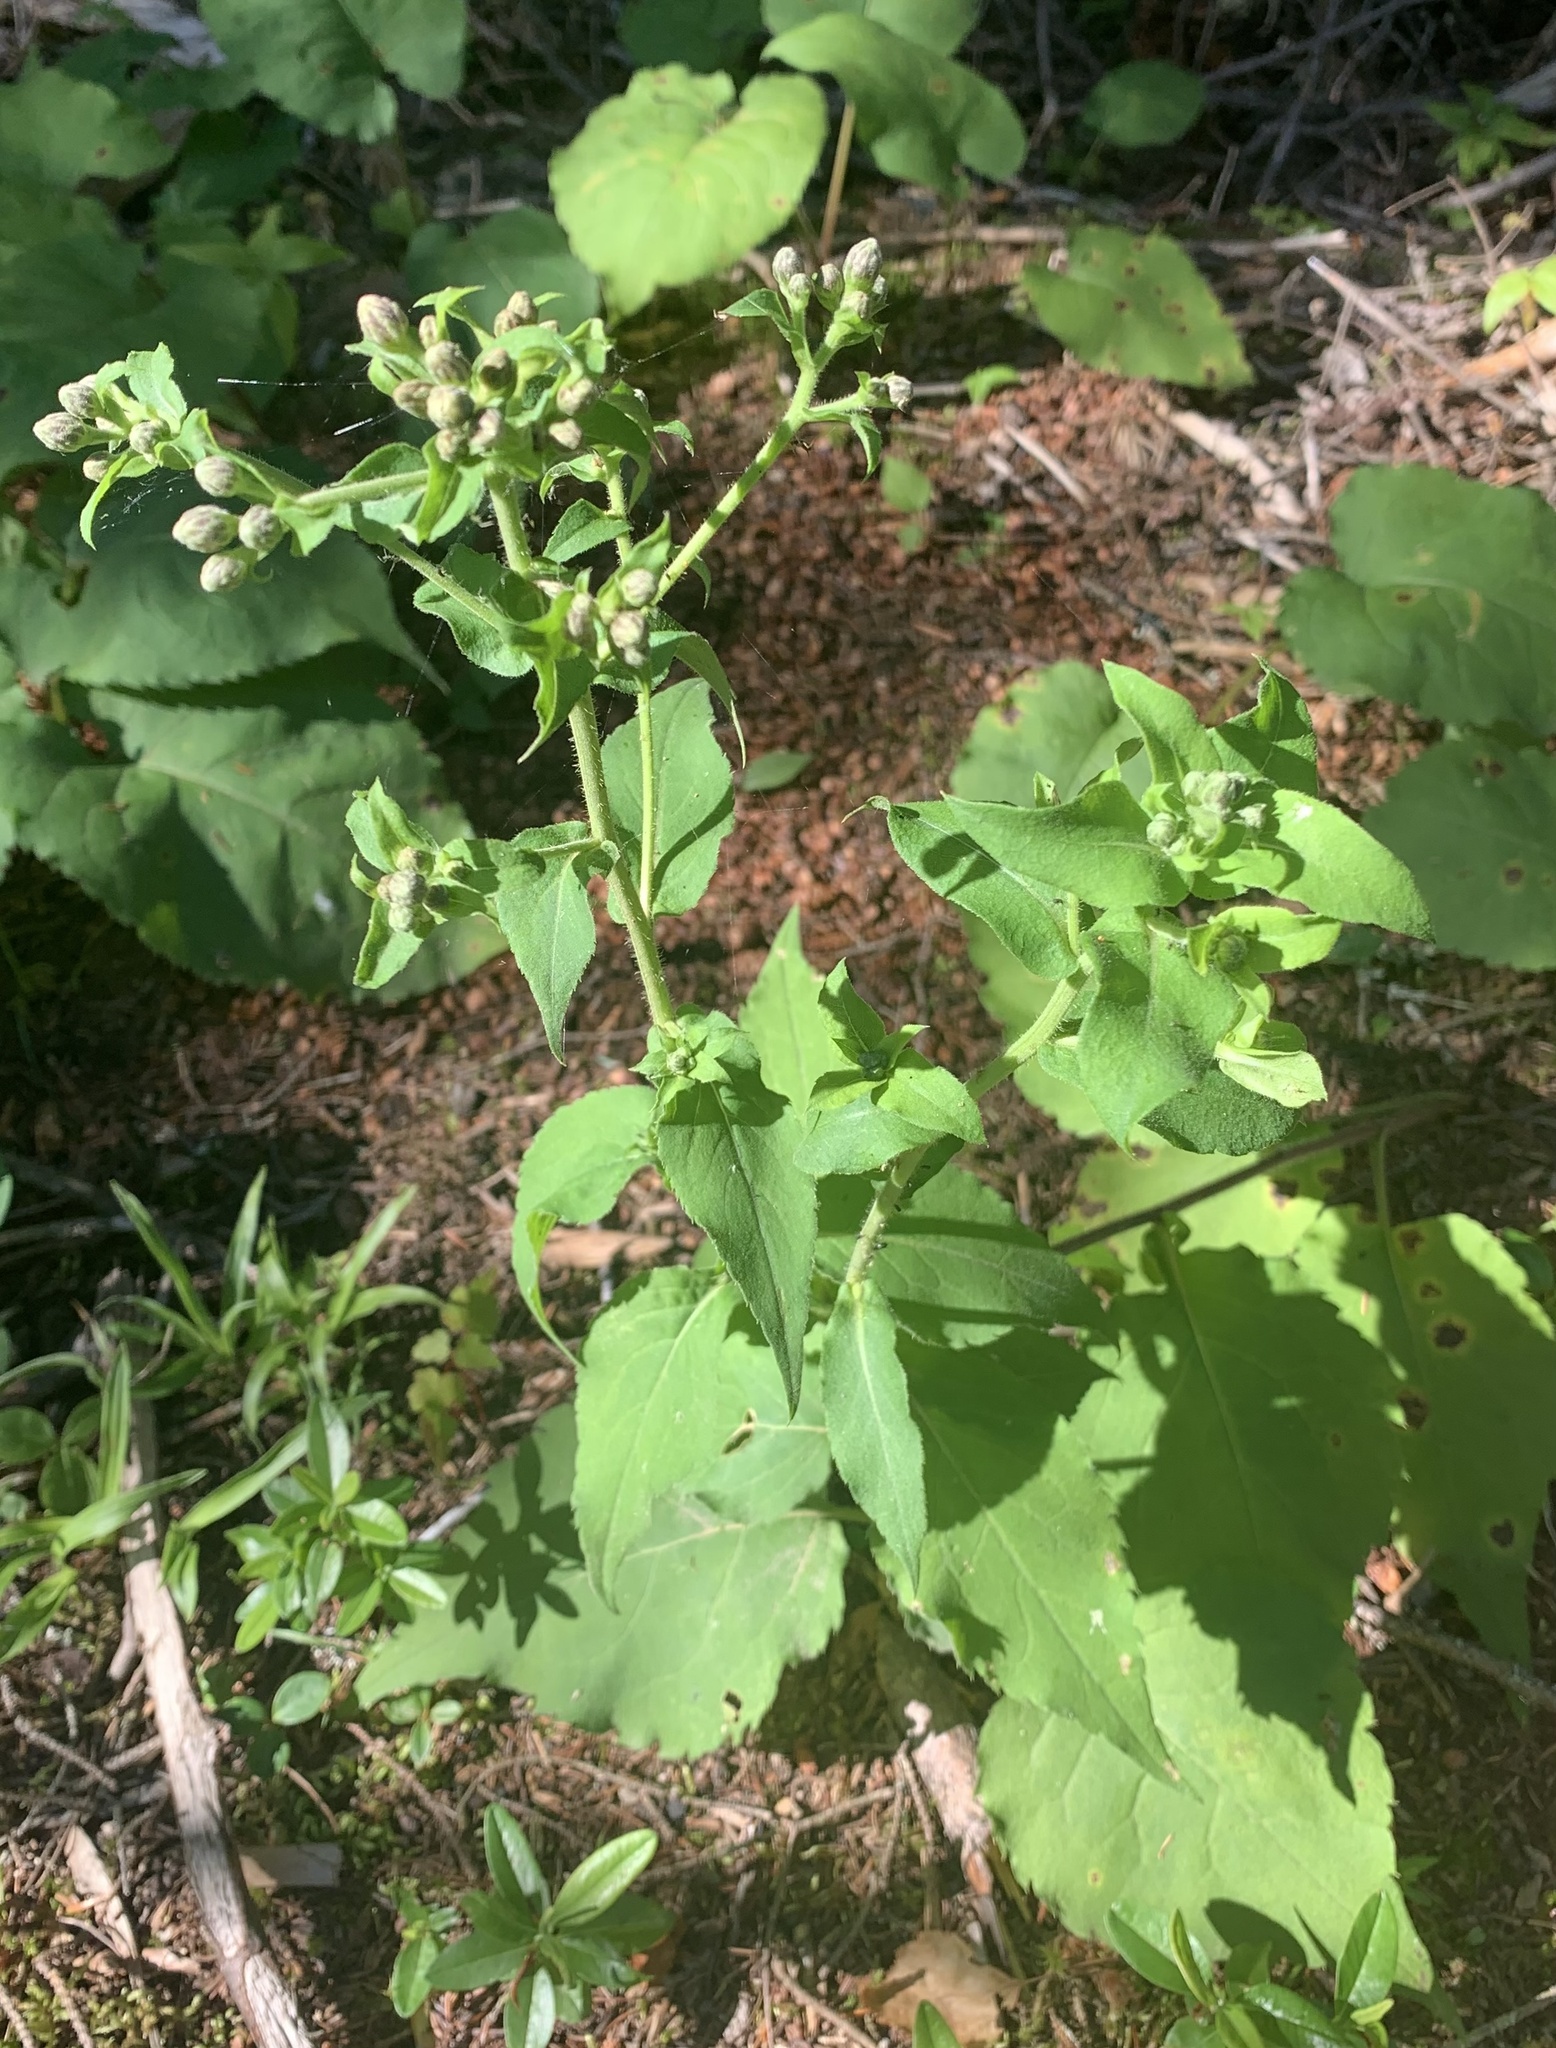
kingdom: Plantae
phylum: Tracheophyta
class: Magnoliopsida
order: Asterales
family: Asteraceae
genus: Symphyotrichum
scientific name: Symphyotrichum puniceum
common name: Bog aster
